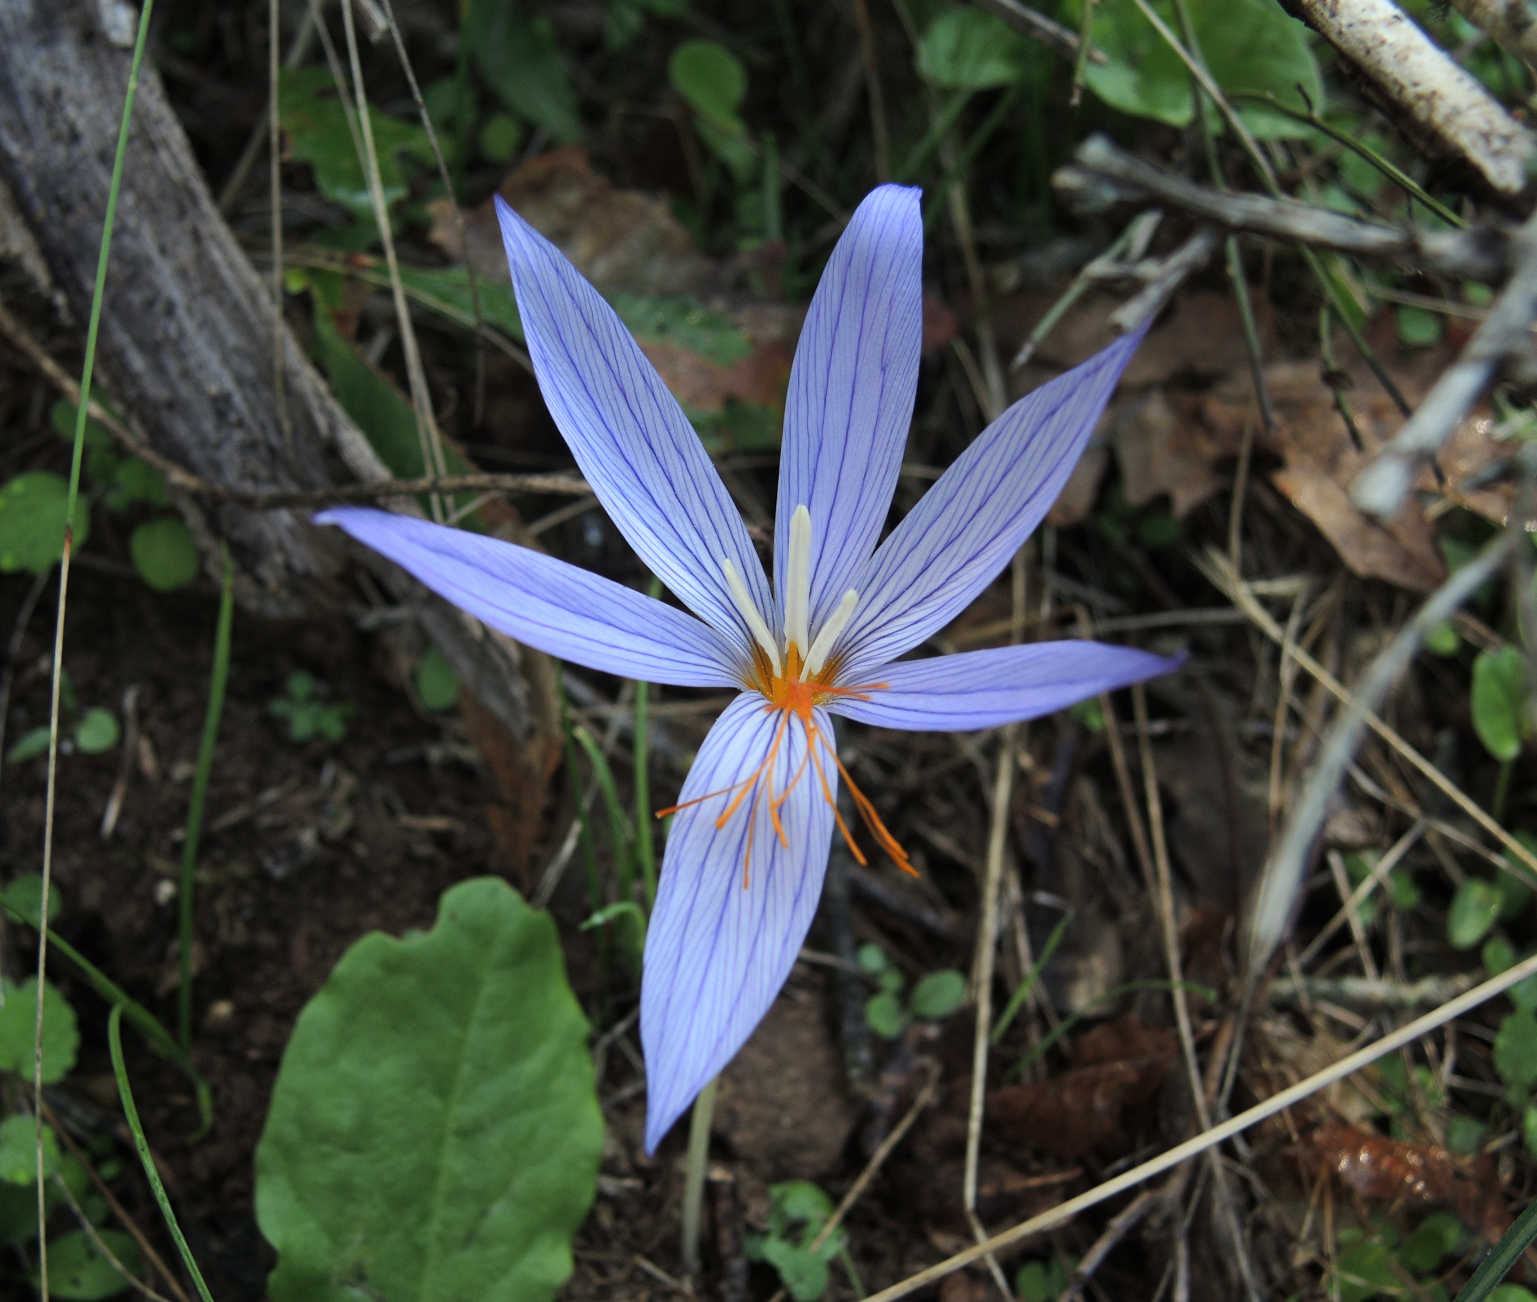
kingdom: Plantae
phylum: Tracheophyta
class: Liliopsida
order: Asparagales
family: Iridaceae
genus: Crocus
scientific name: Crocus ibrahimii
